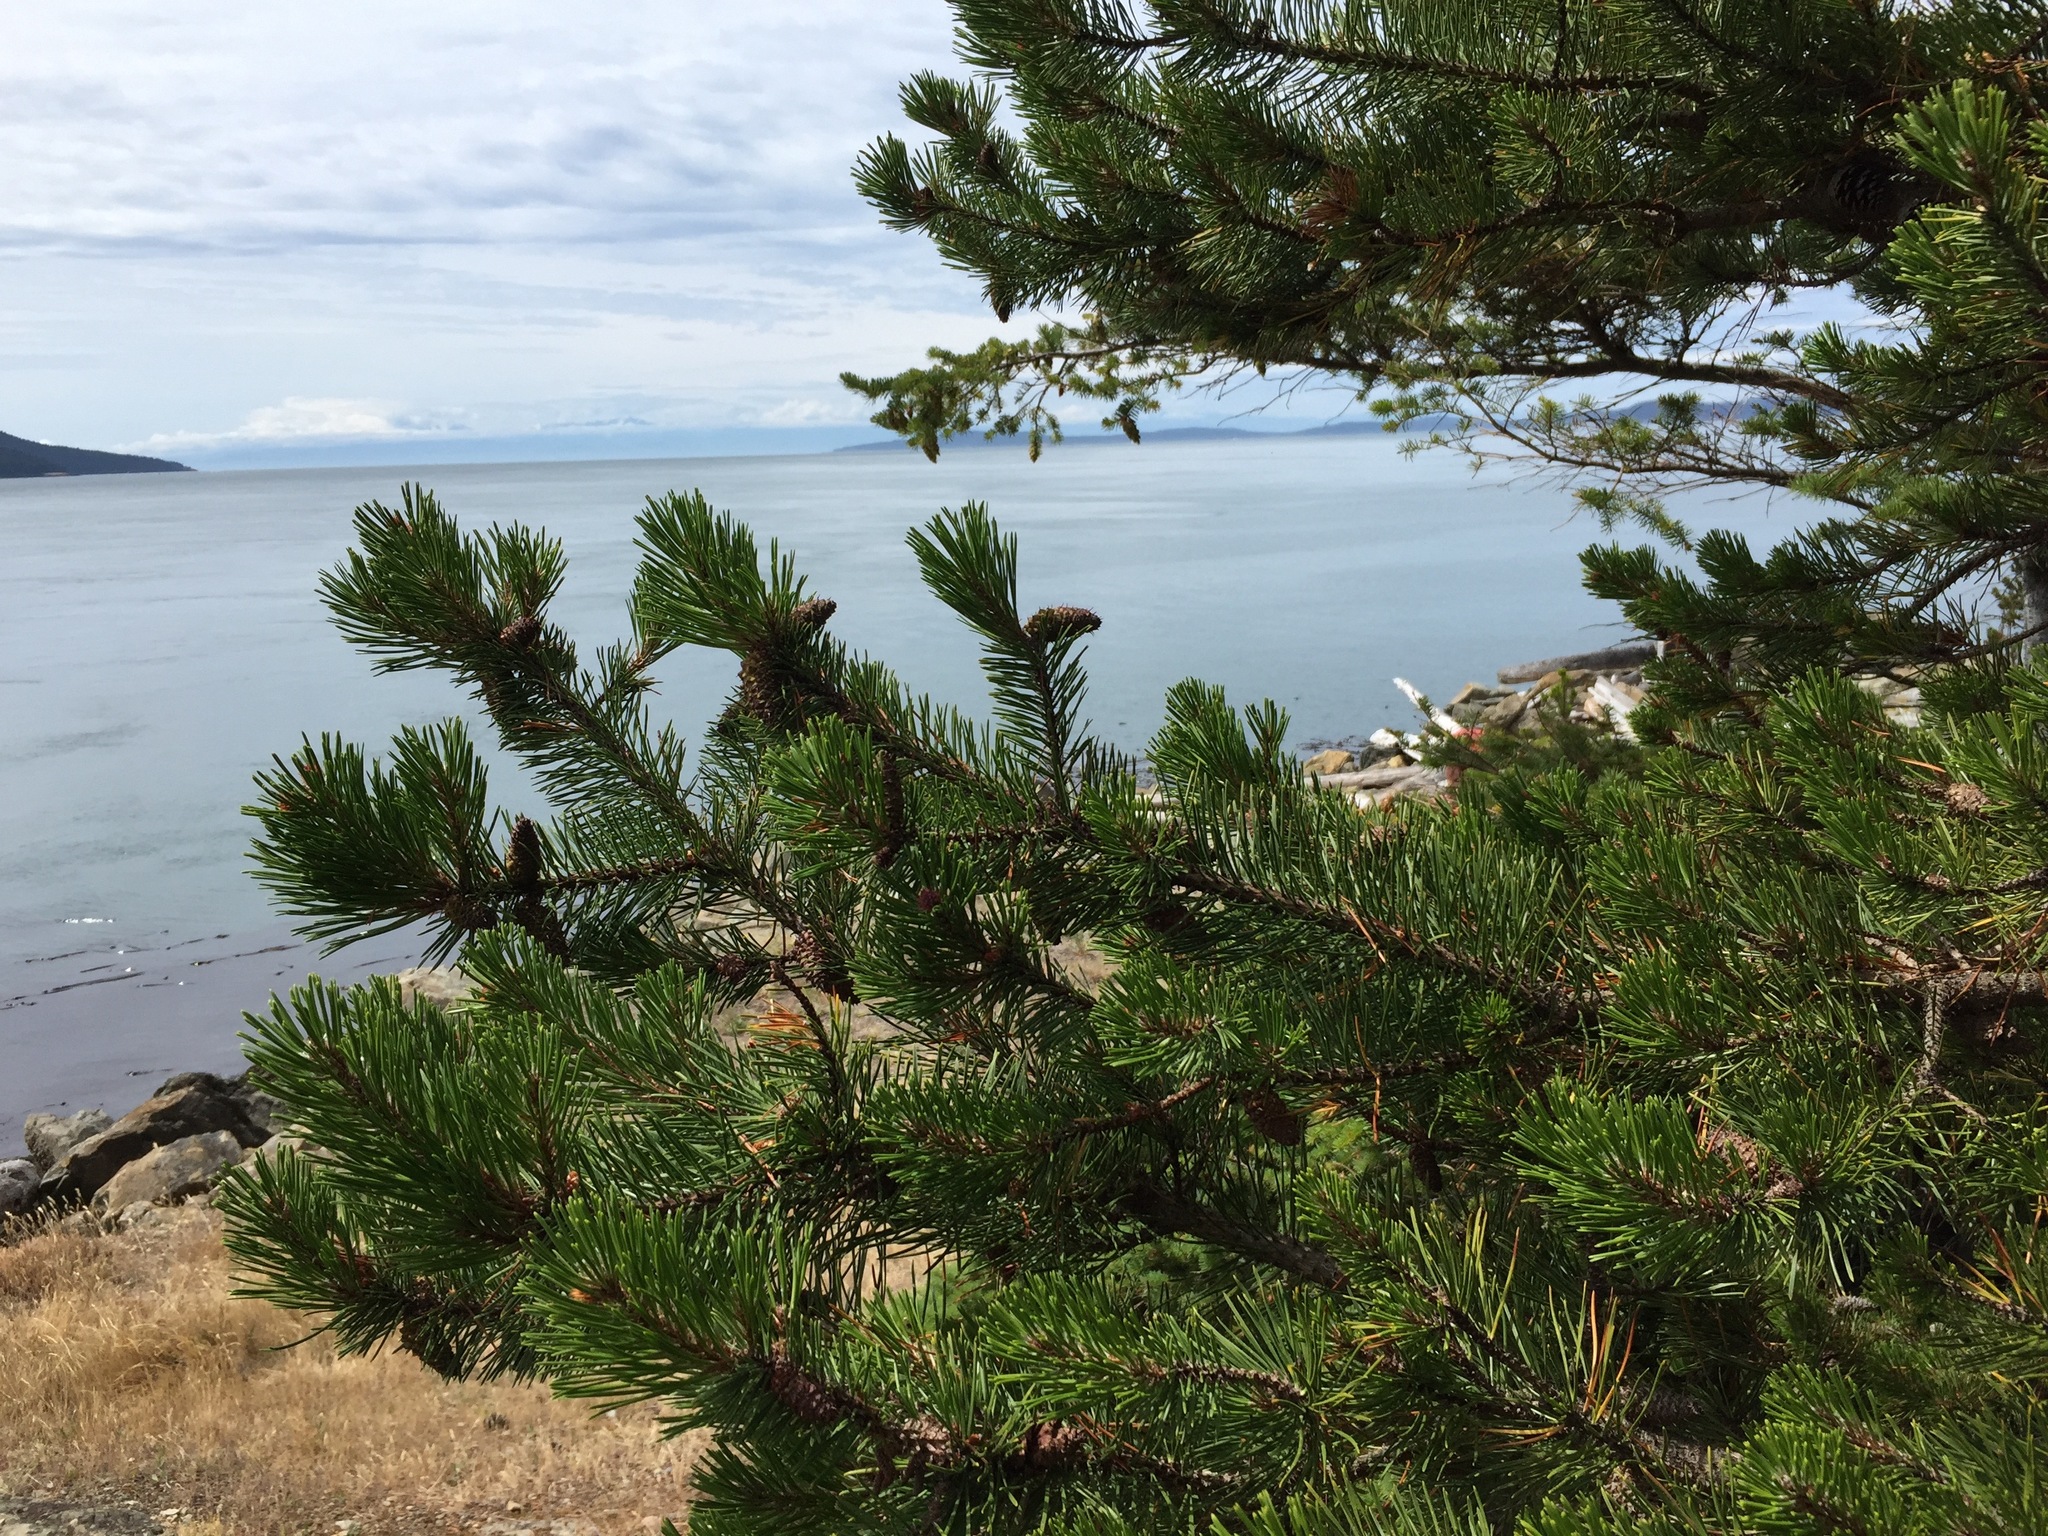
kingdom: Plantae
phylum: Tracheophyta
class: Pinopsida
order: Pinales
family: Pinaceae
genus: Pinus
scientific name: Pinus contorta
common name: Lodgepole pine
